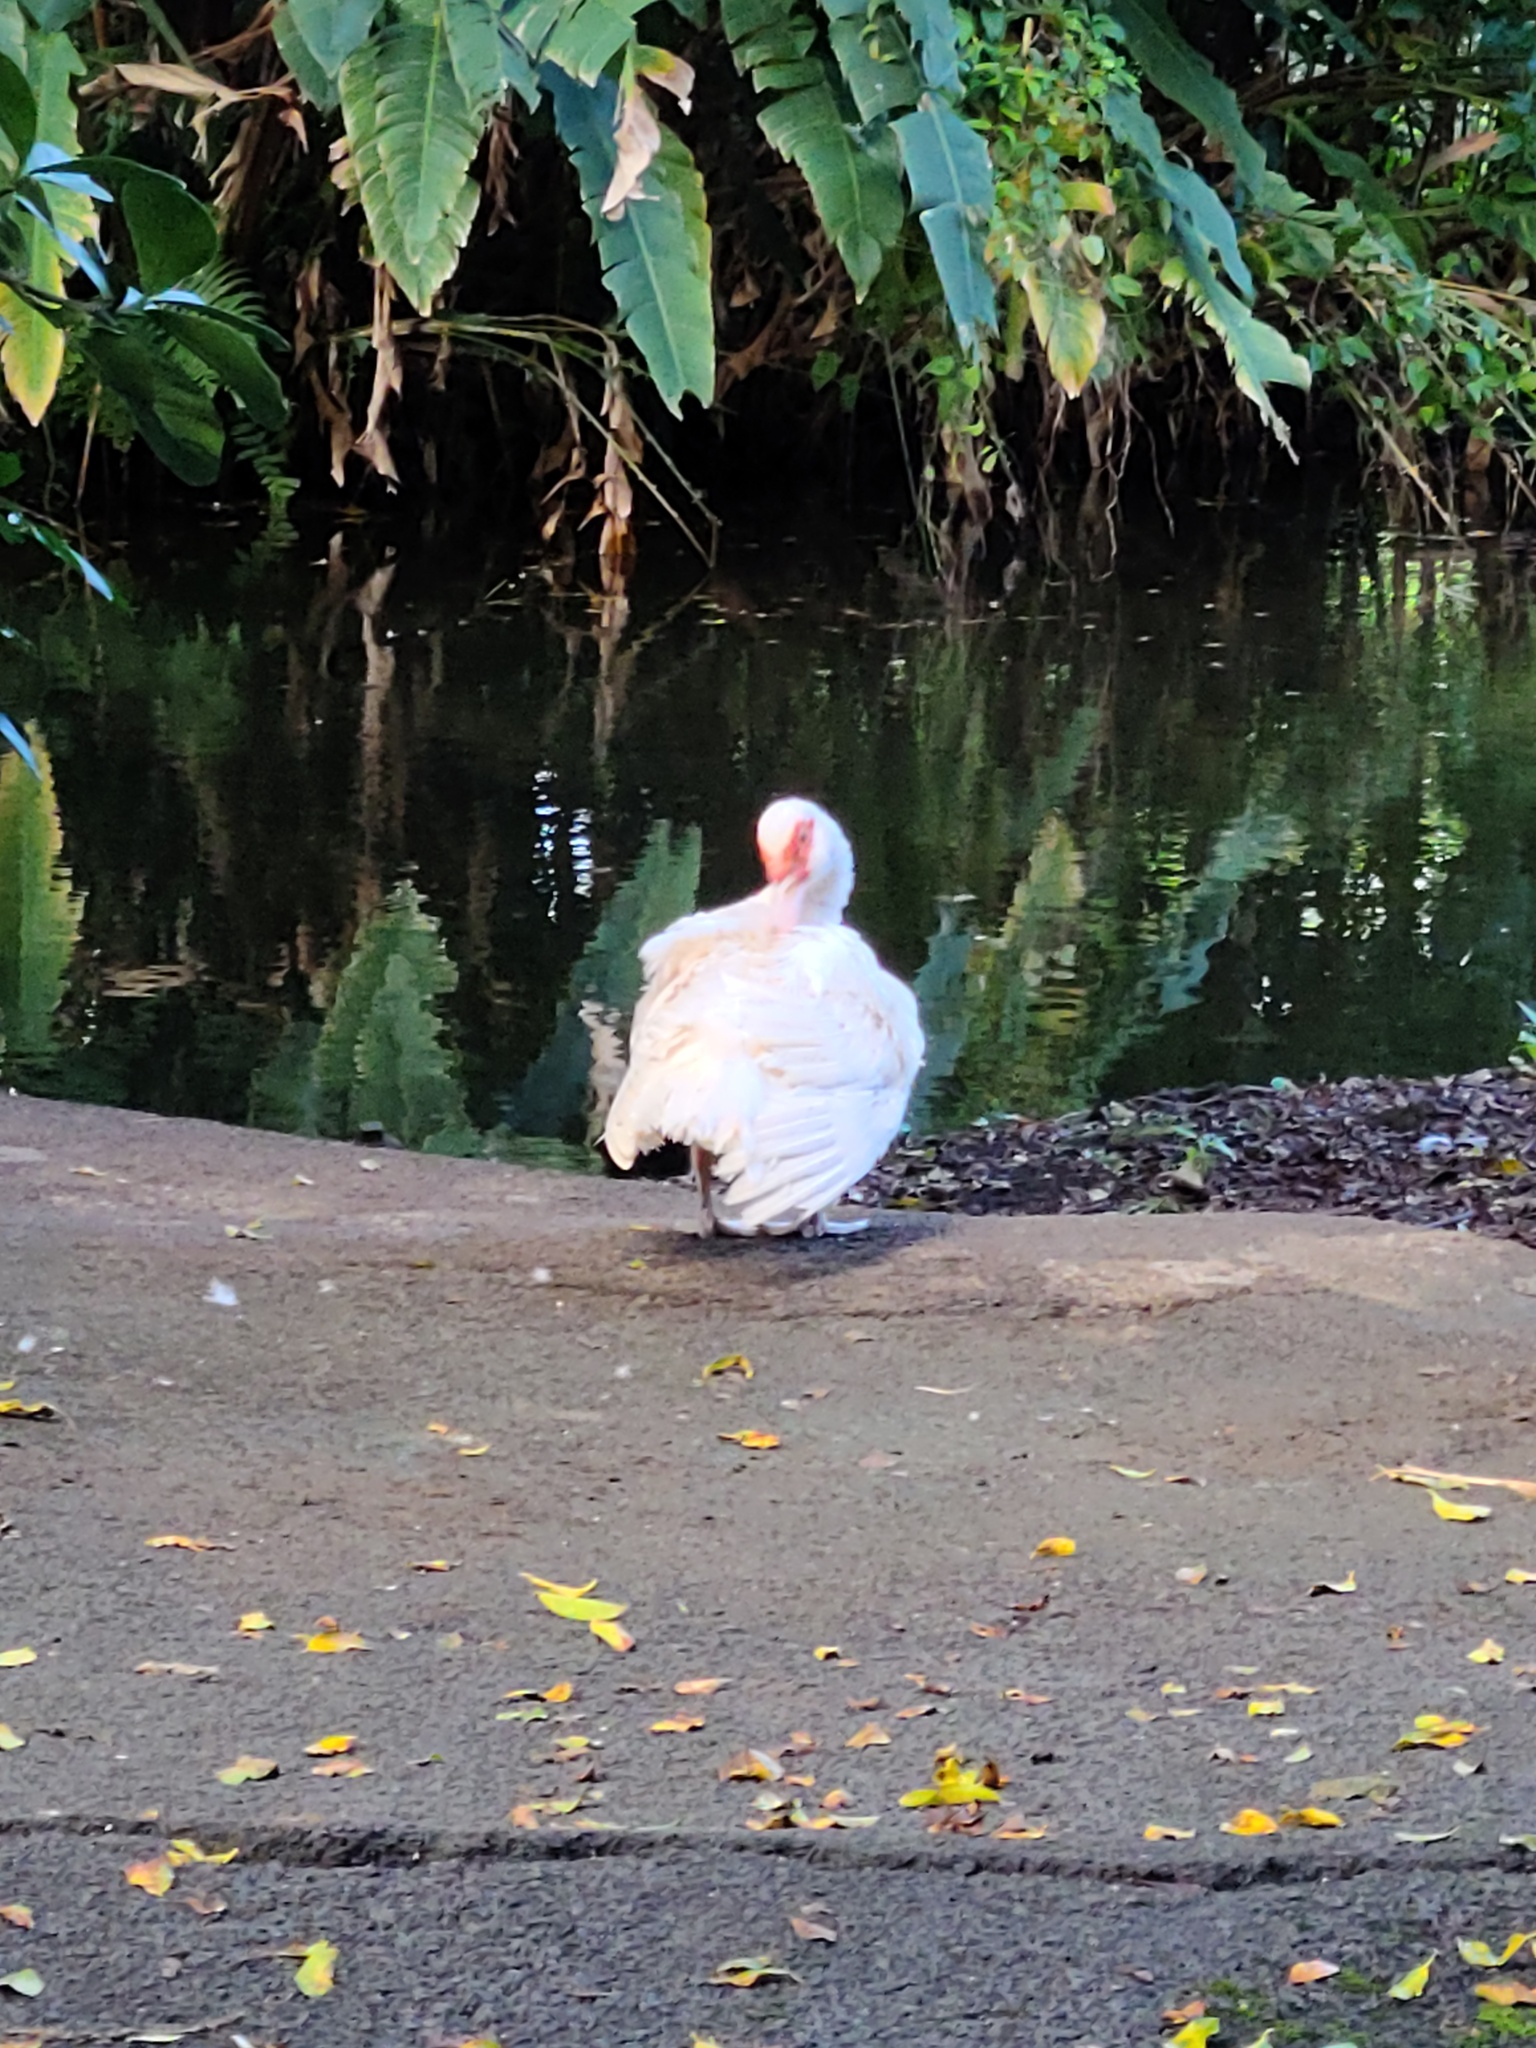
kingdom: Animalia
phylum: Chordata
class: Aves
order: Anseriformes
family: Anatidae
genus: Cairina
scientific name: Cairina moschata
